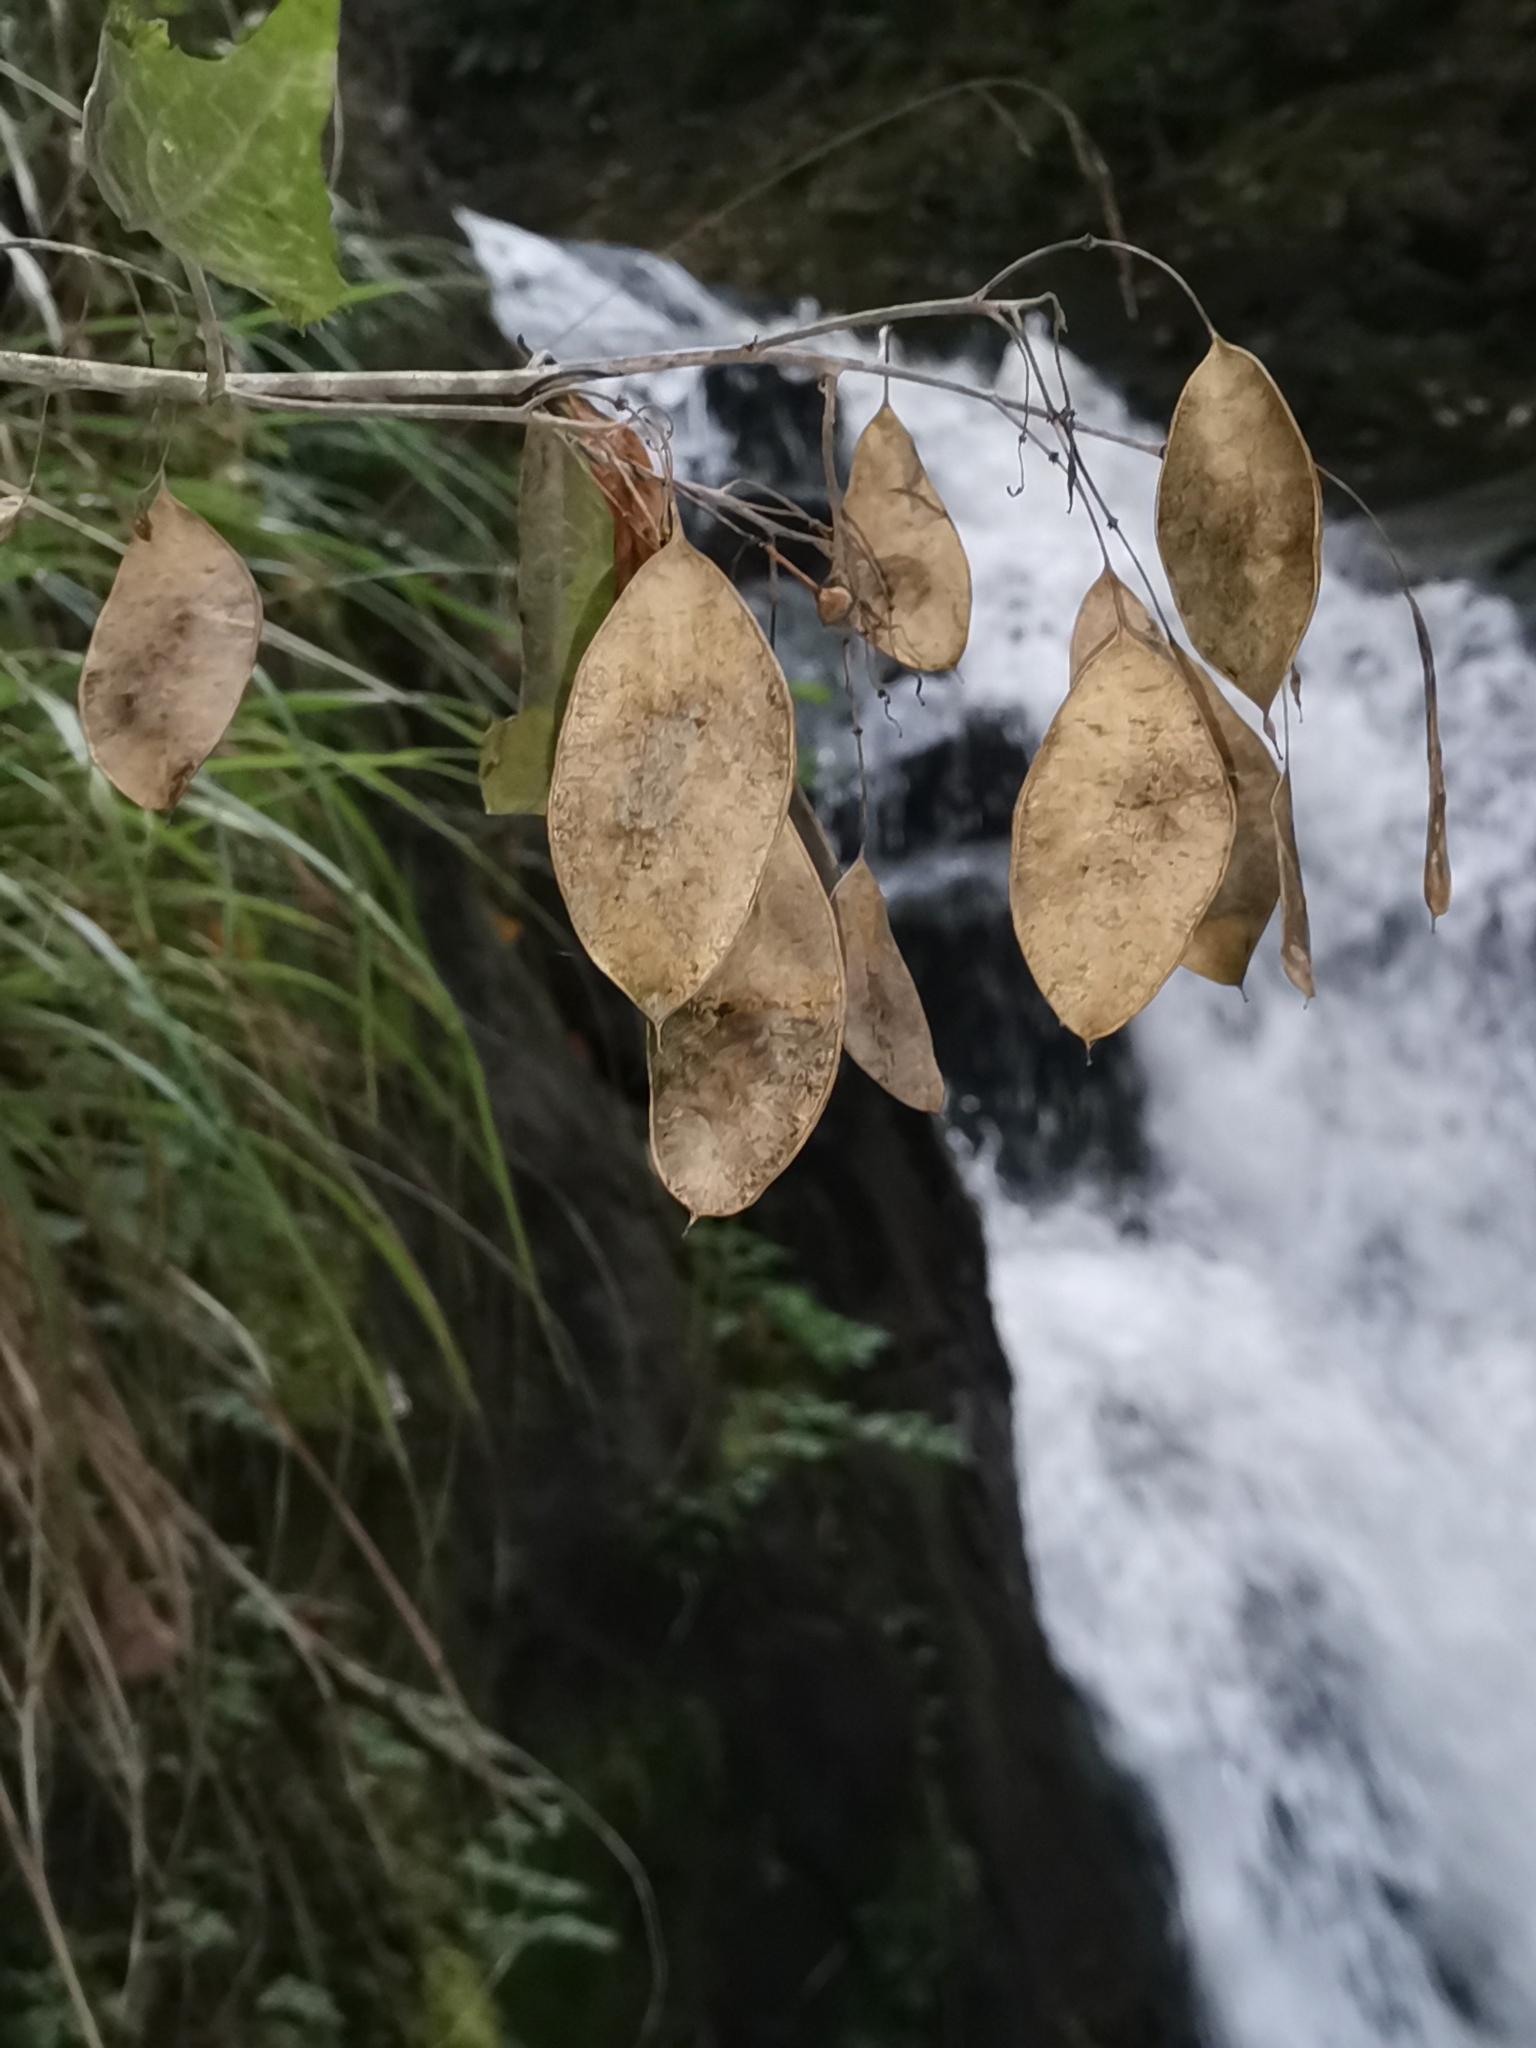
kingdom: Plantae
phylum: Tracheophyta
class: Magnoliopsida
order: Brassicales
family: Brassicaceae
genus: Lunaria
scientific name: Lunaria rediviva
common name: Perennial honesty
